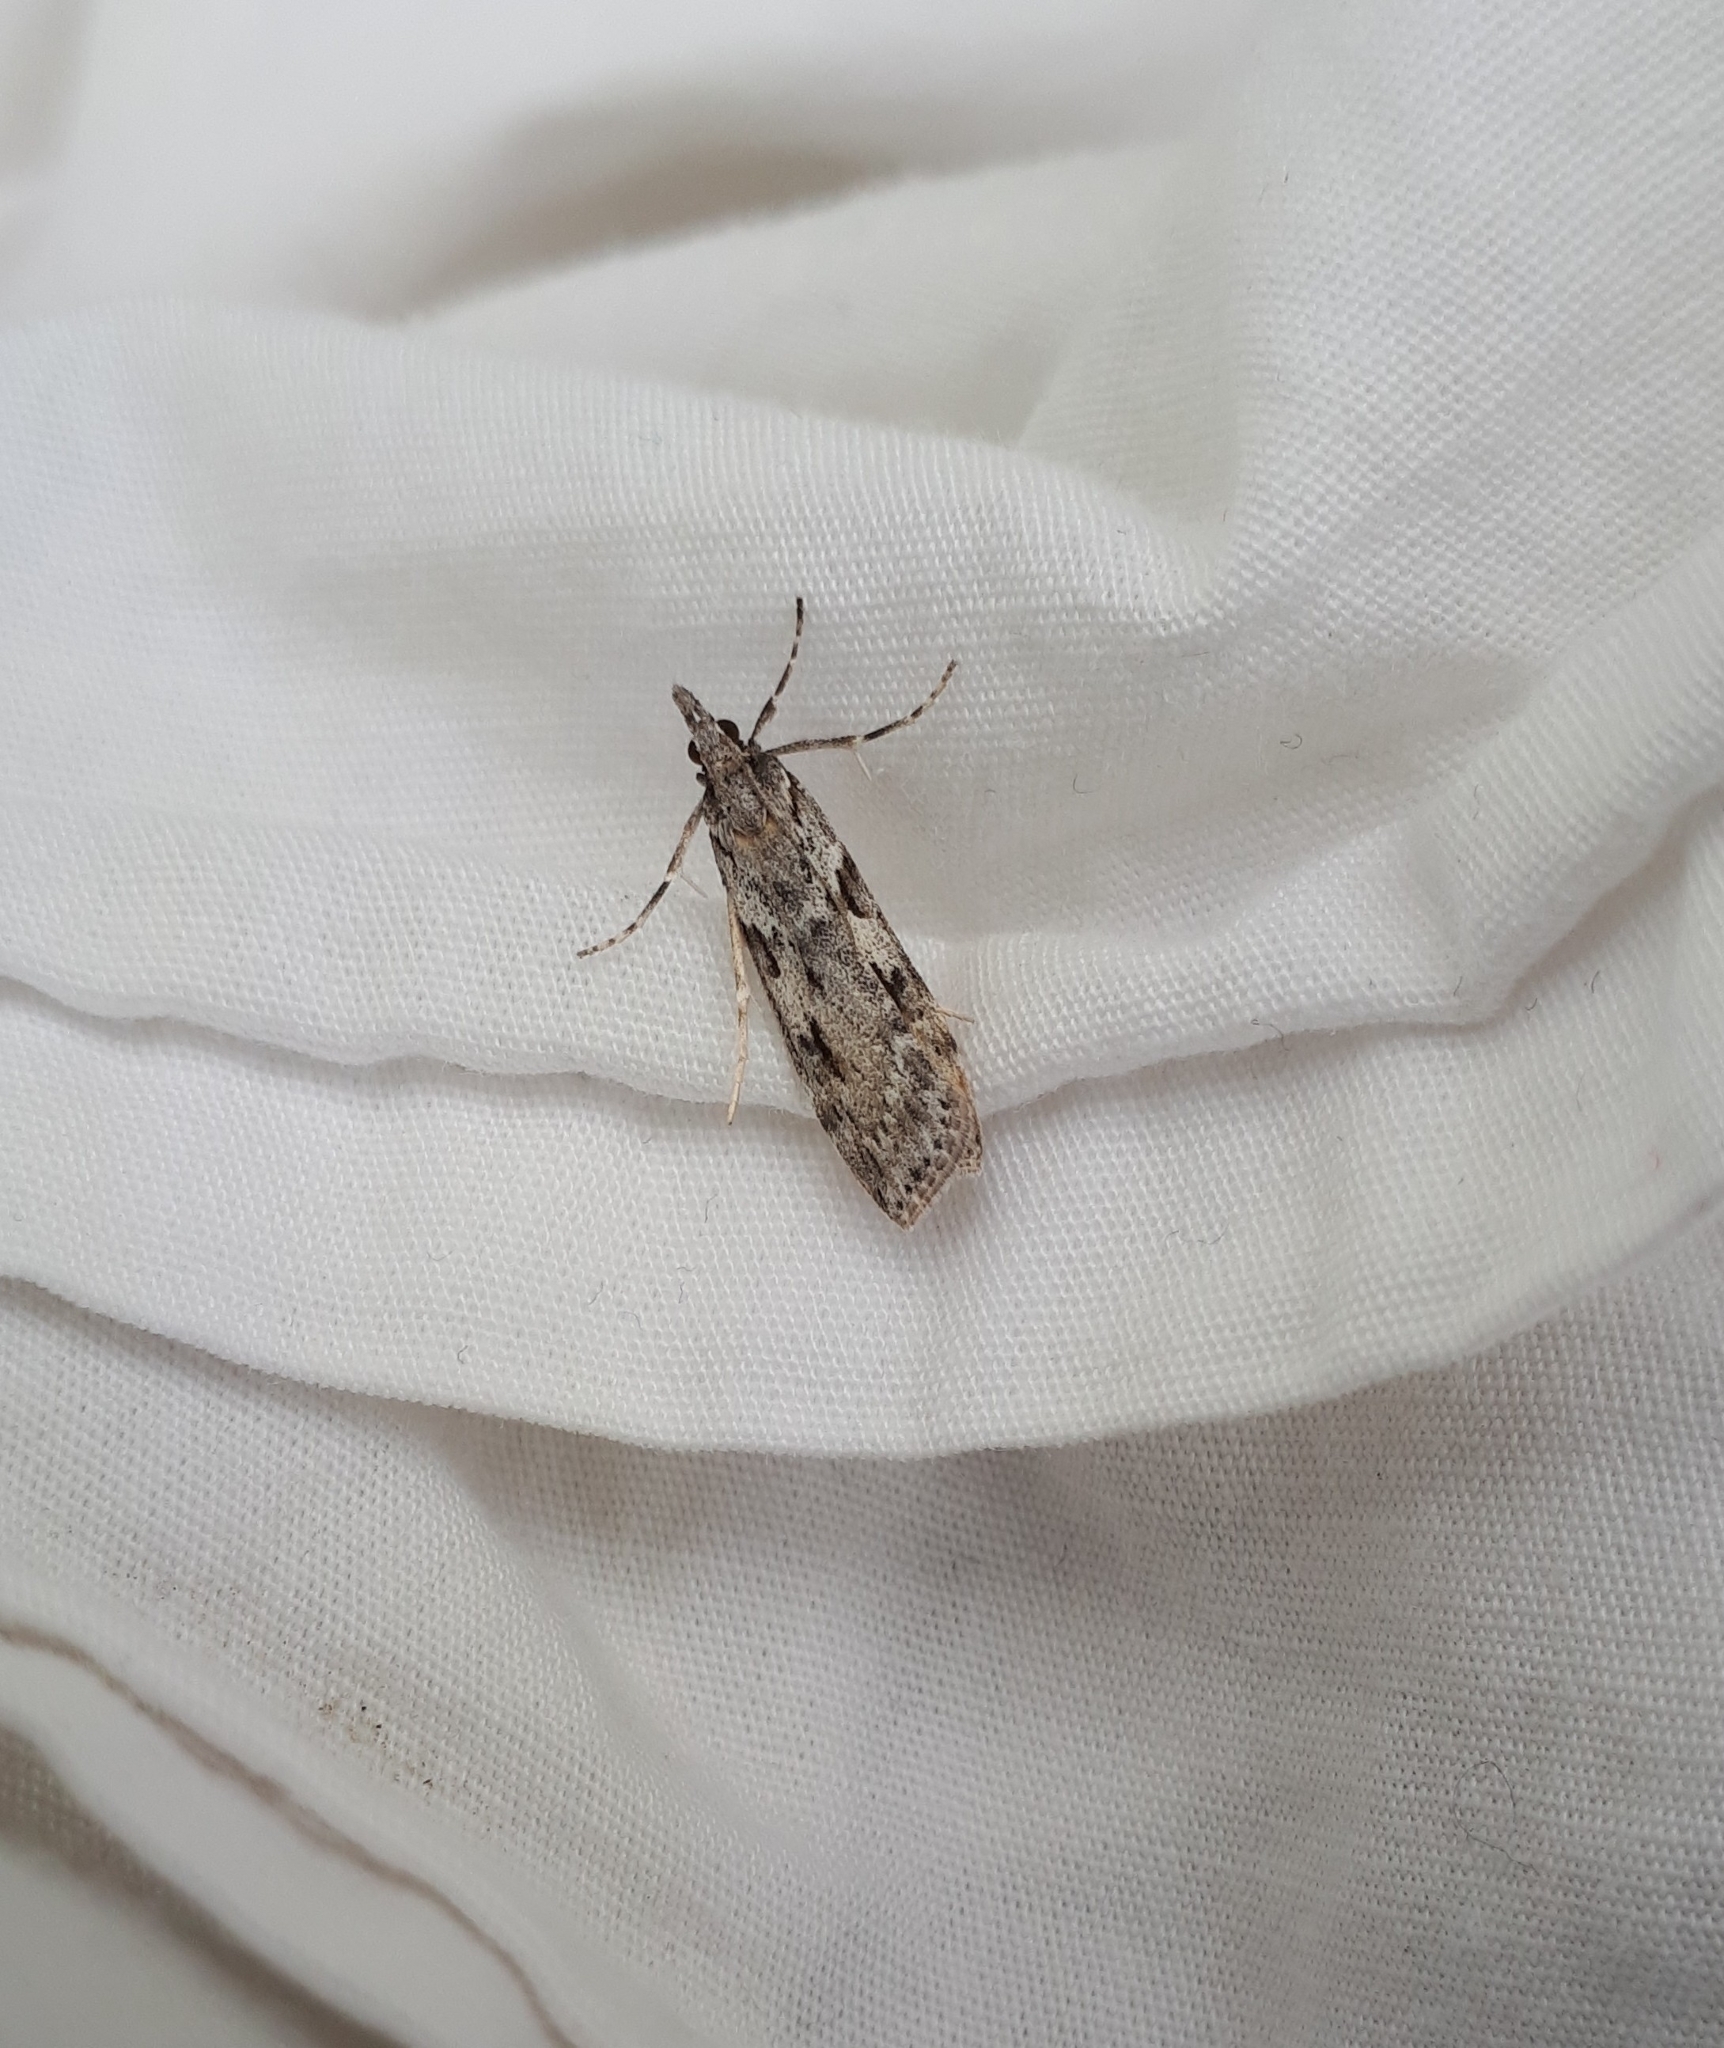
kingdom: Animalia
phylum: Arthropoda
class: Insecta
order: Lepidoptera
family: Crambidae
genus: Scoparia
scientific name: Scoparia halopis
